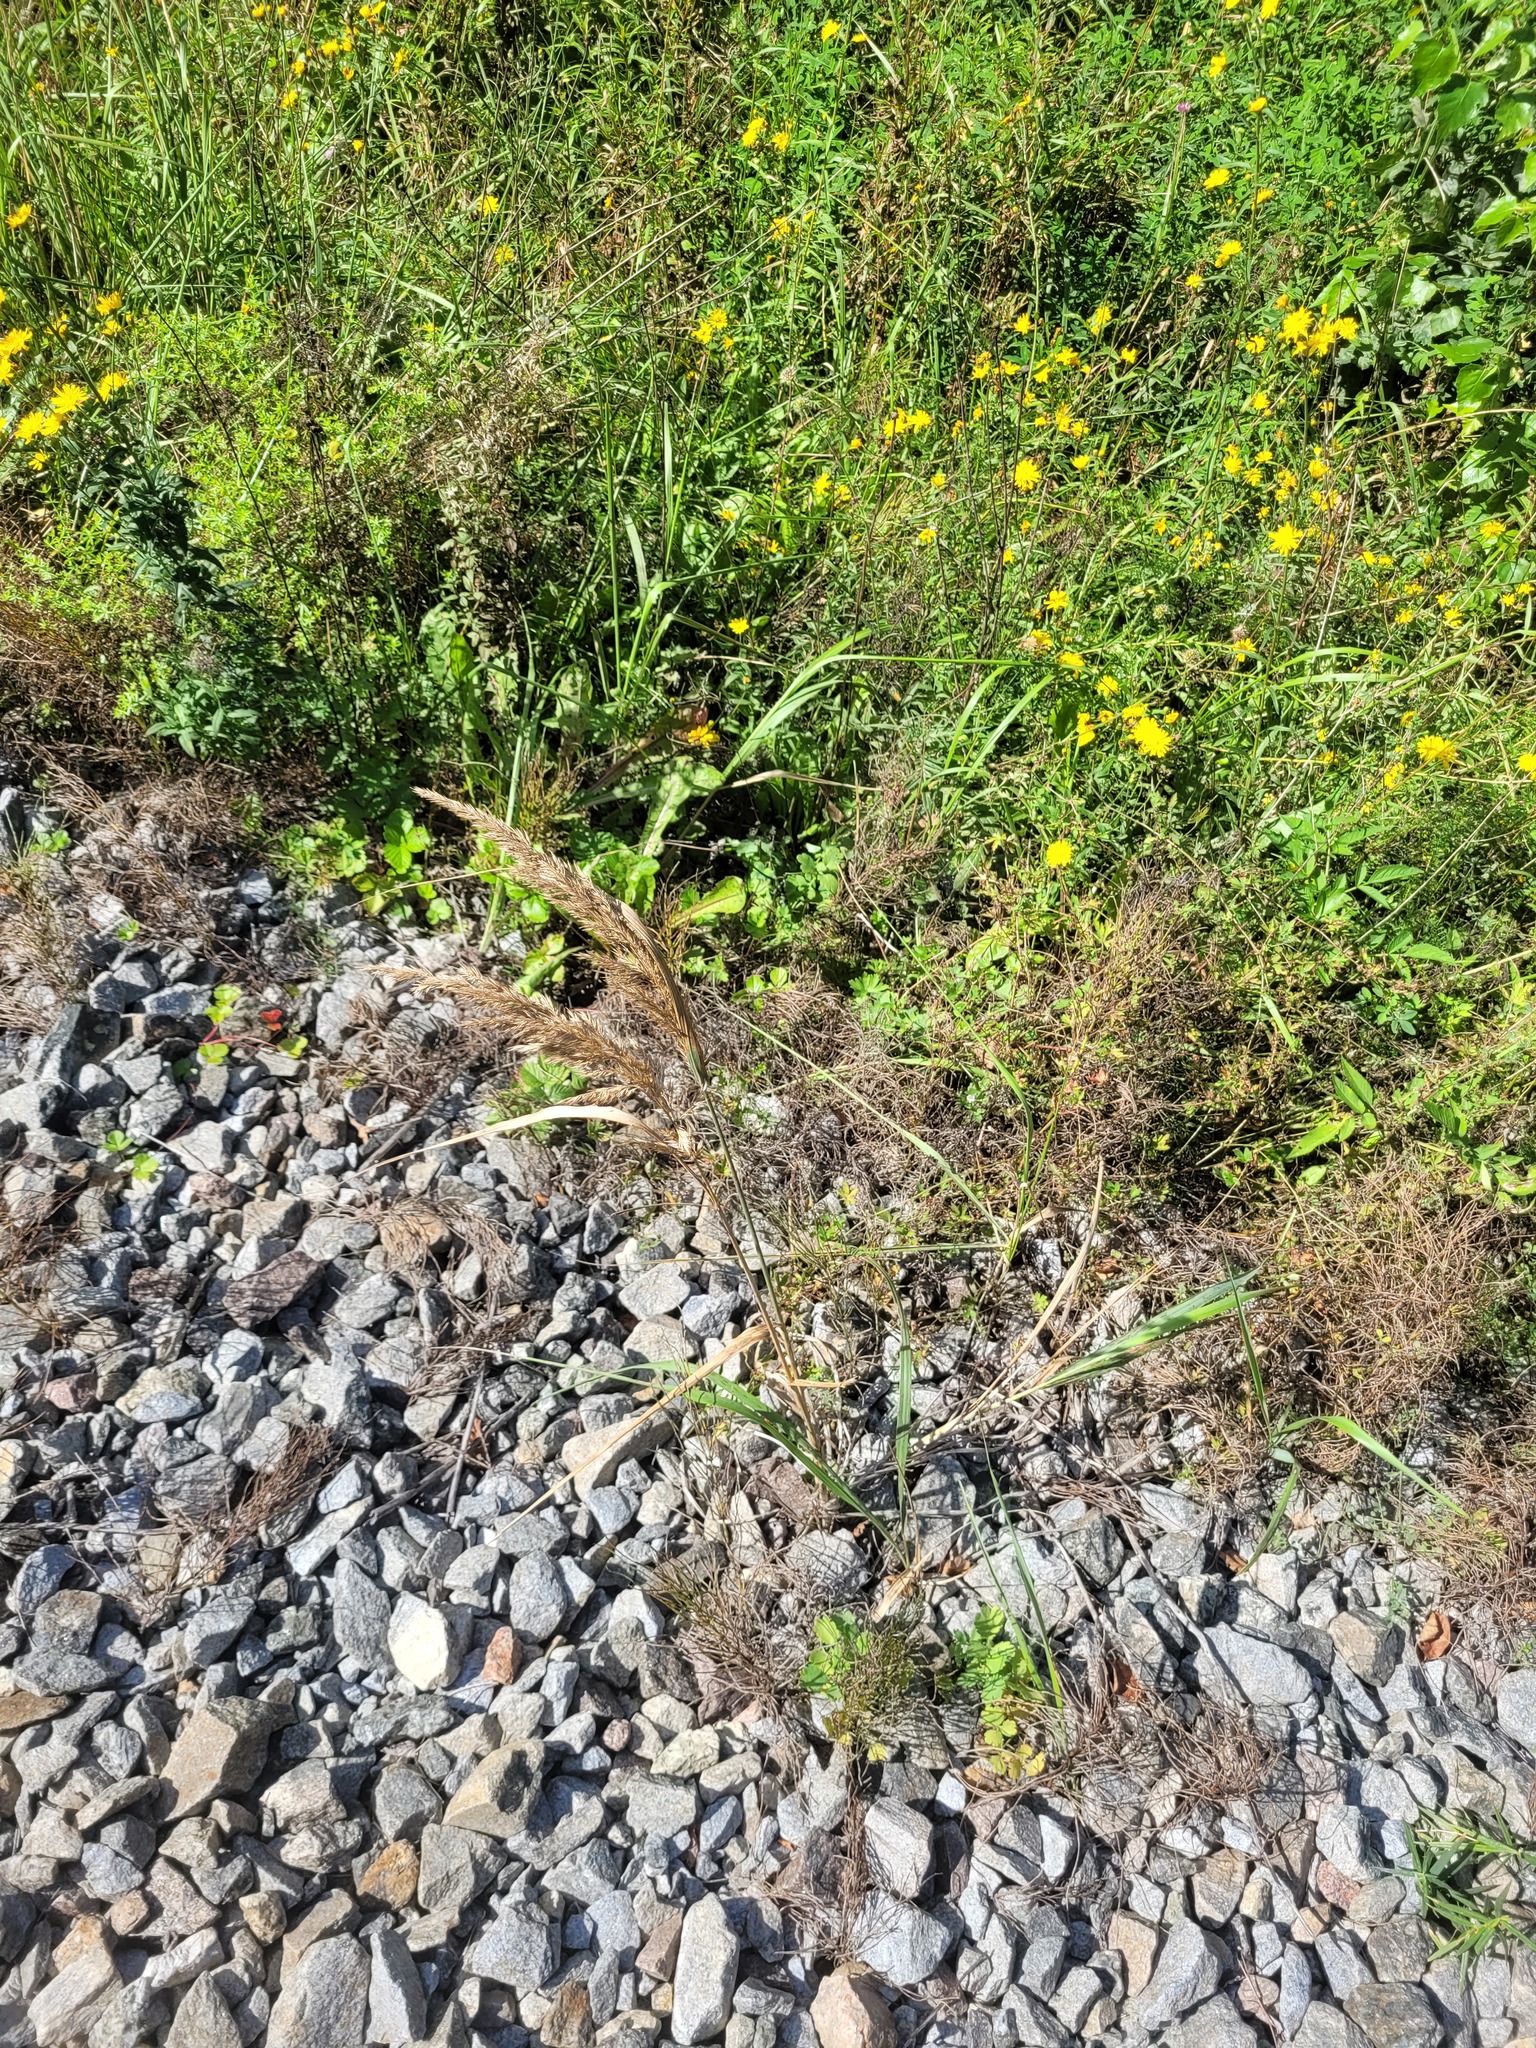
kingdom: Plantae
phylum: Tracheophyta
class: Liliopsida
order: Poales
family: Poaceae
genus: Calamagrostis
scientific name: Calamagrostis epigejos
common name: Wood small-reed
